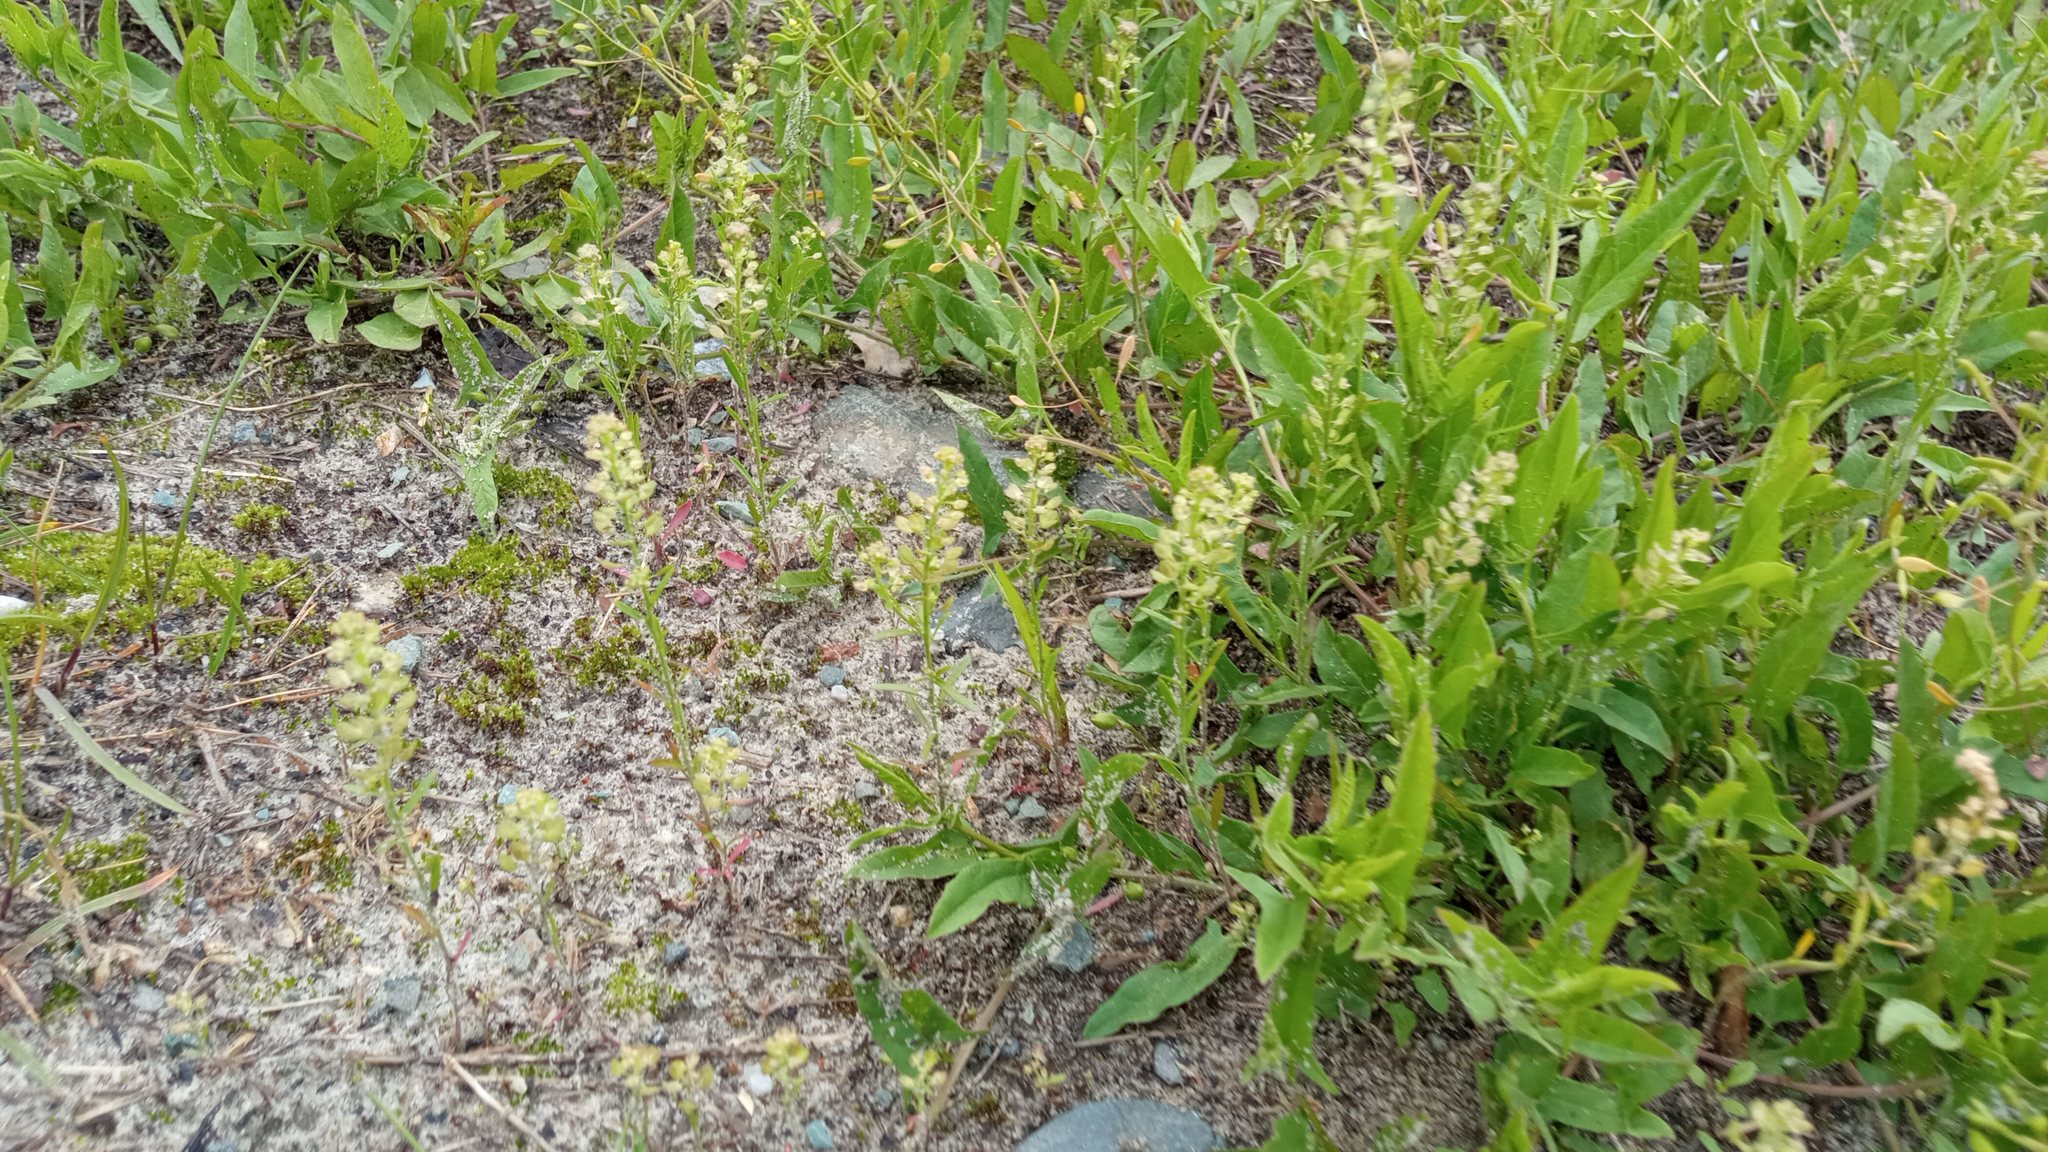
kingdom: Plantae
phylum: Tracheophyta
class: Magnoliopsida
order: Brassicales
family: Brassicaceae
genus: Lepidium
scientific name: Lepidium densiflorum
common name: Miner's pepperwort
